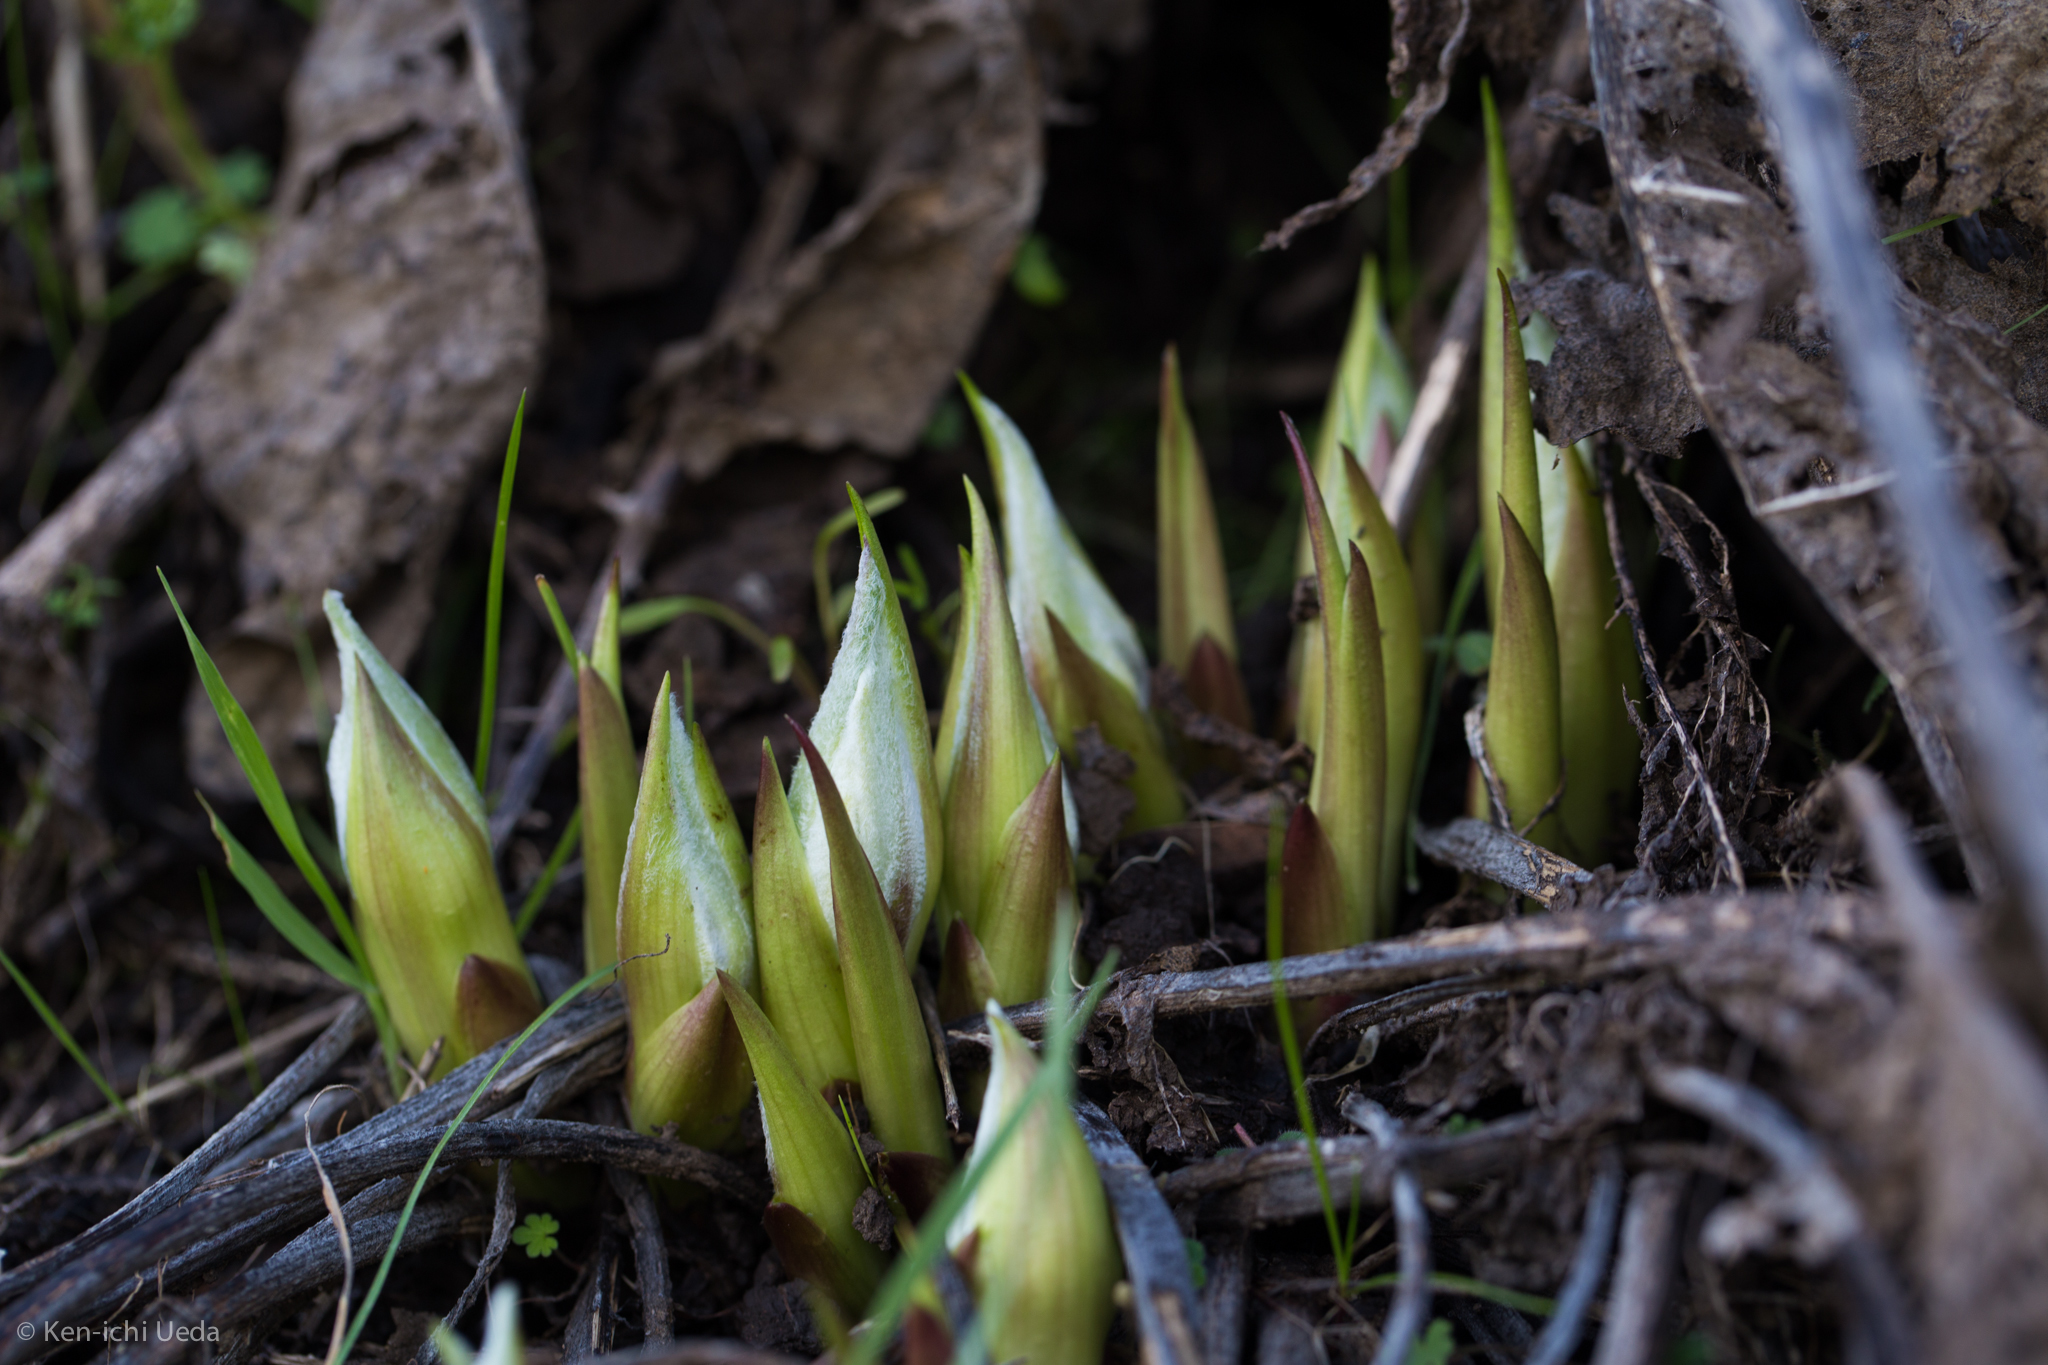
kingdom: Plantae
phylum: Tracheophyta
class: Magnoliopsida
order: Asterales
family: Asteraceae
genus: Wyethia
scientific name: Wyethia helenioides
